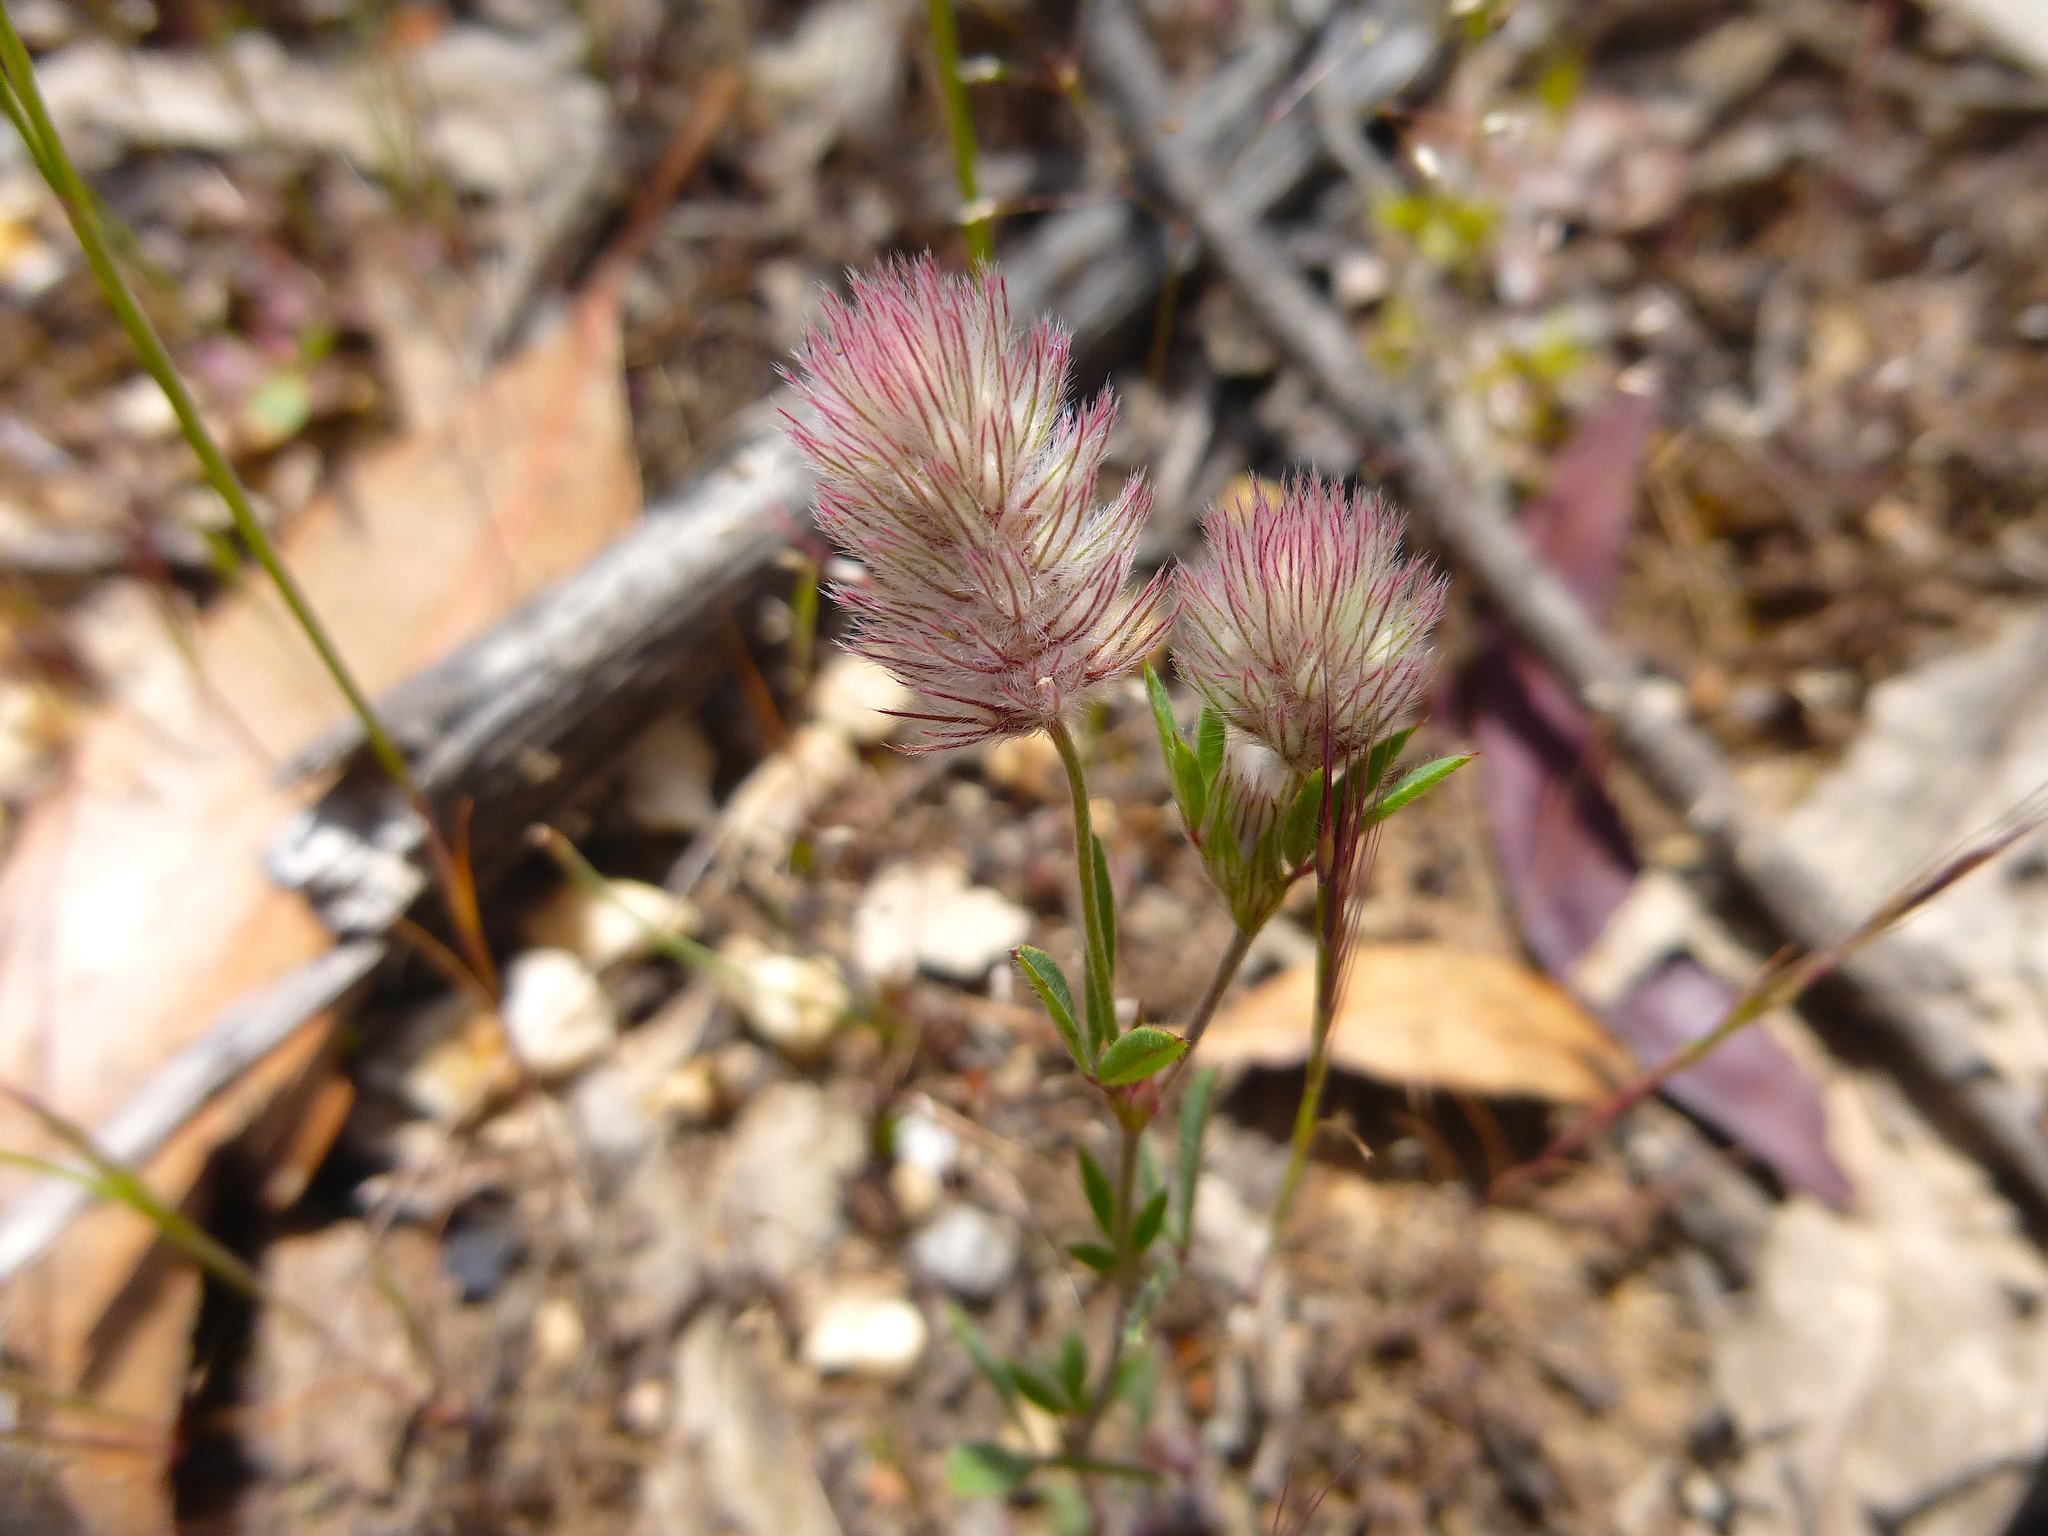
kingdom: Plantae
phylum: Tracheophyta
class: Magnoliopsida
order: Fabales
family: Fabaceae
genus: Trifolium
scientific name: Trifolium arvense
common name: Hare's-foot clover
